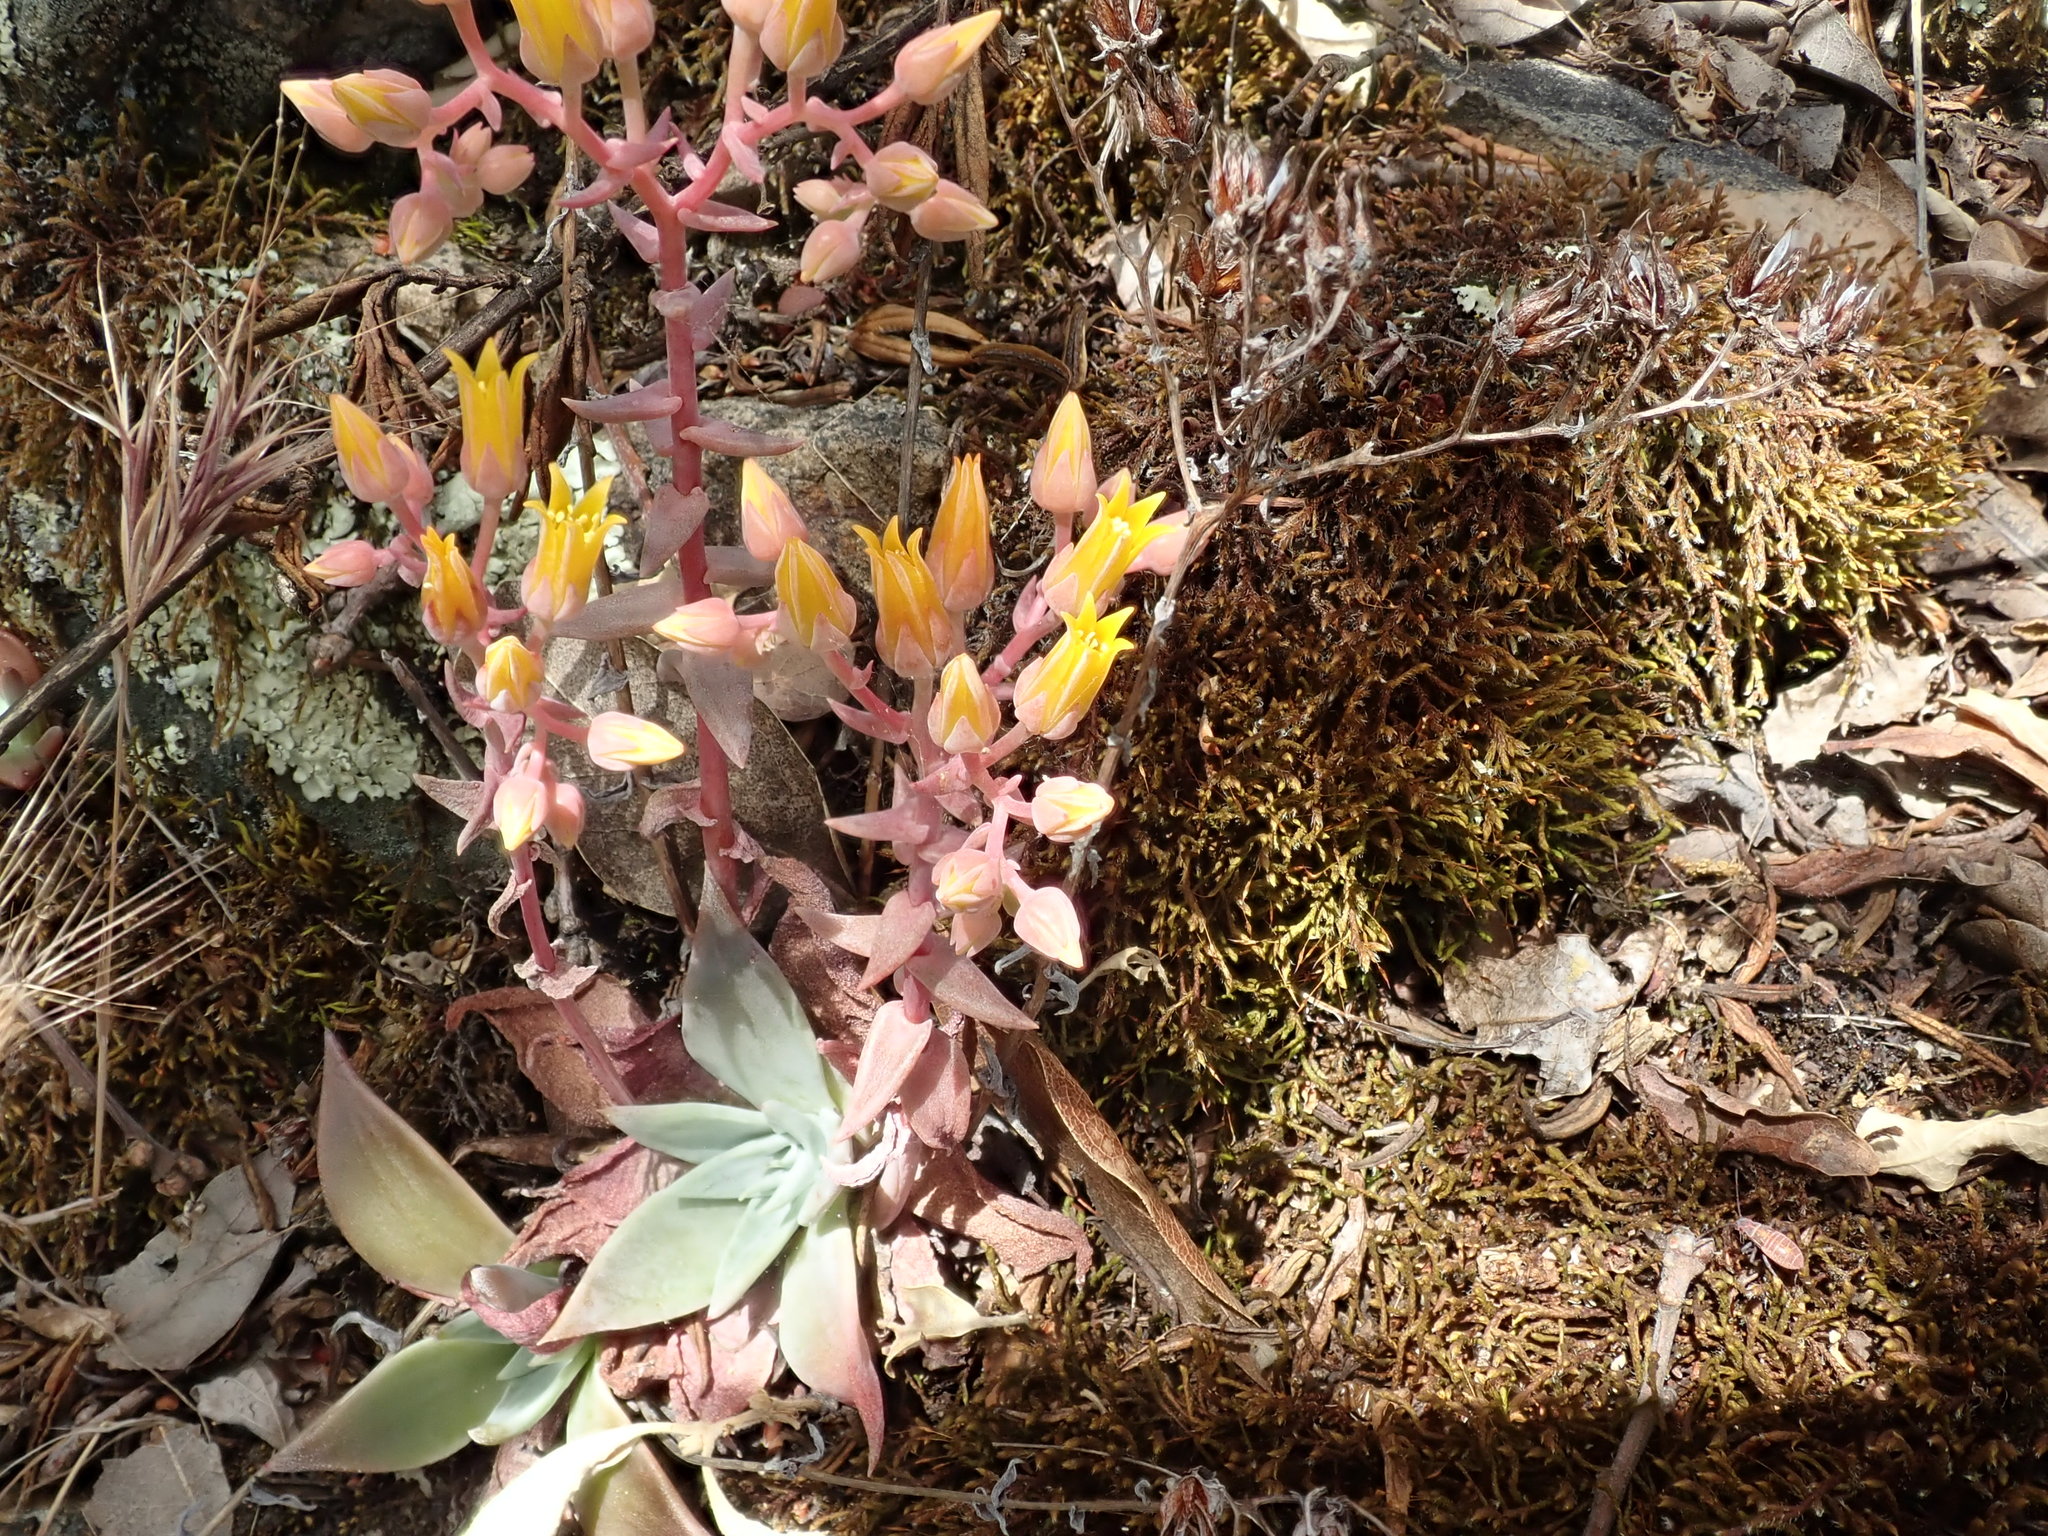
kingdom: Plantae
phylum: Tracheophyta
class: Magnoliopsida
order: Saxifragales
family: Crassulaceae
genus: Dudleya
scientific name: Dudleya cymosa
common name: Canyon dudleya
